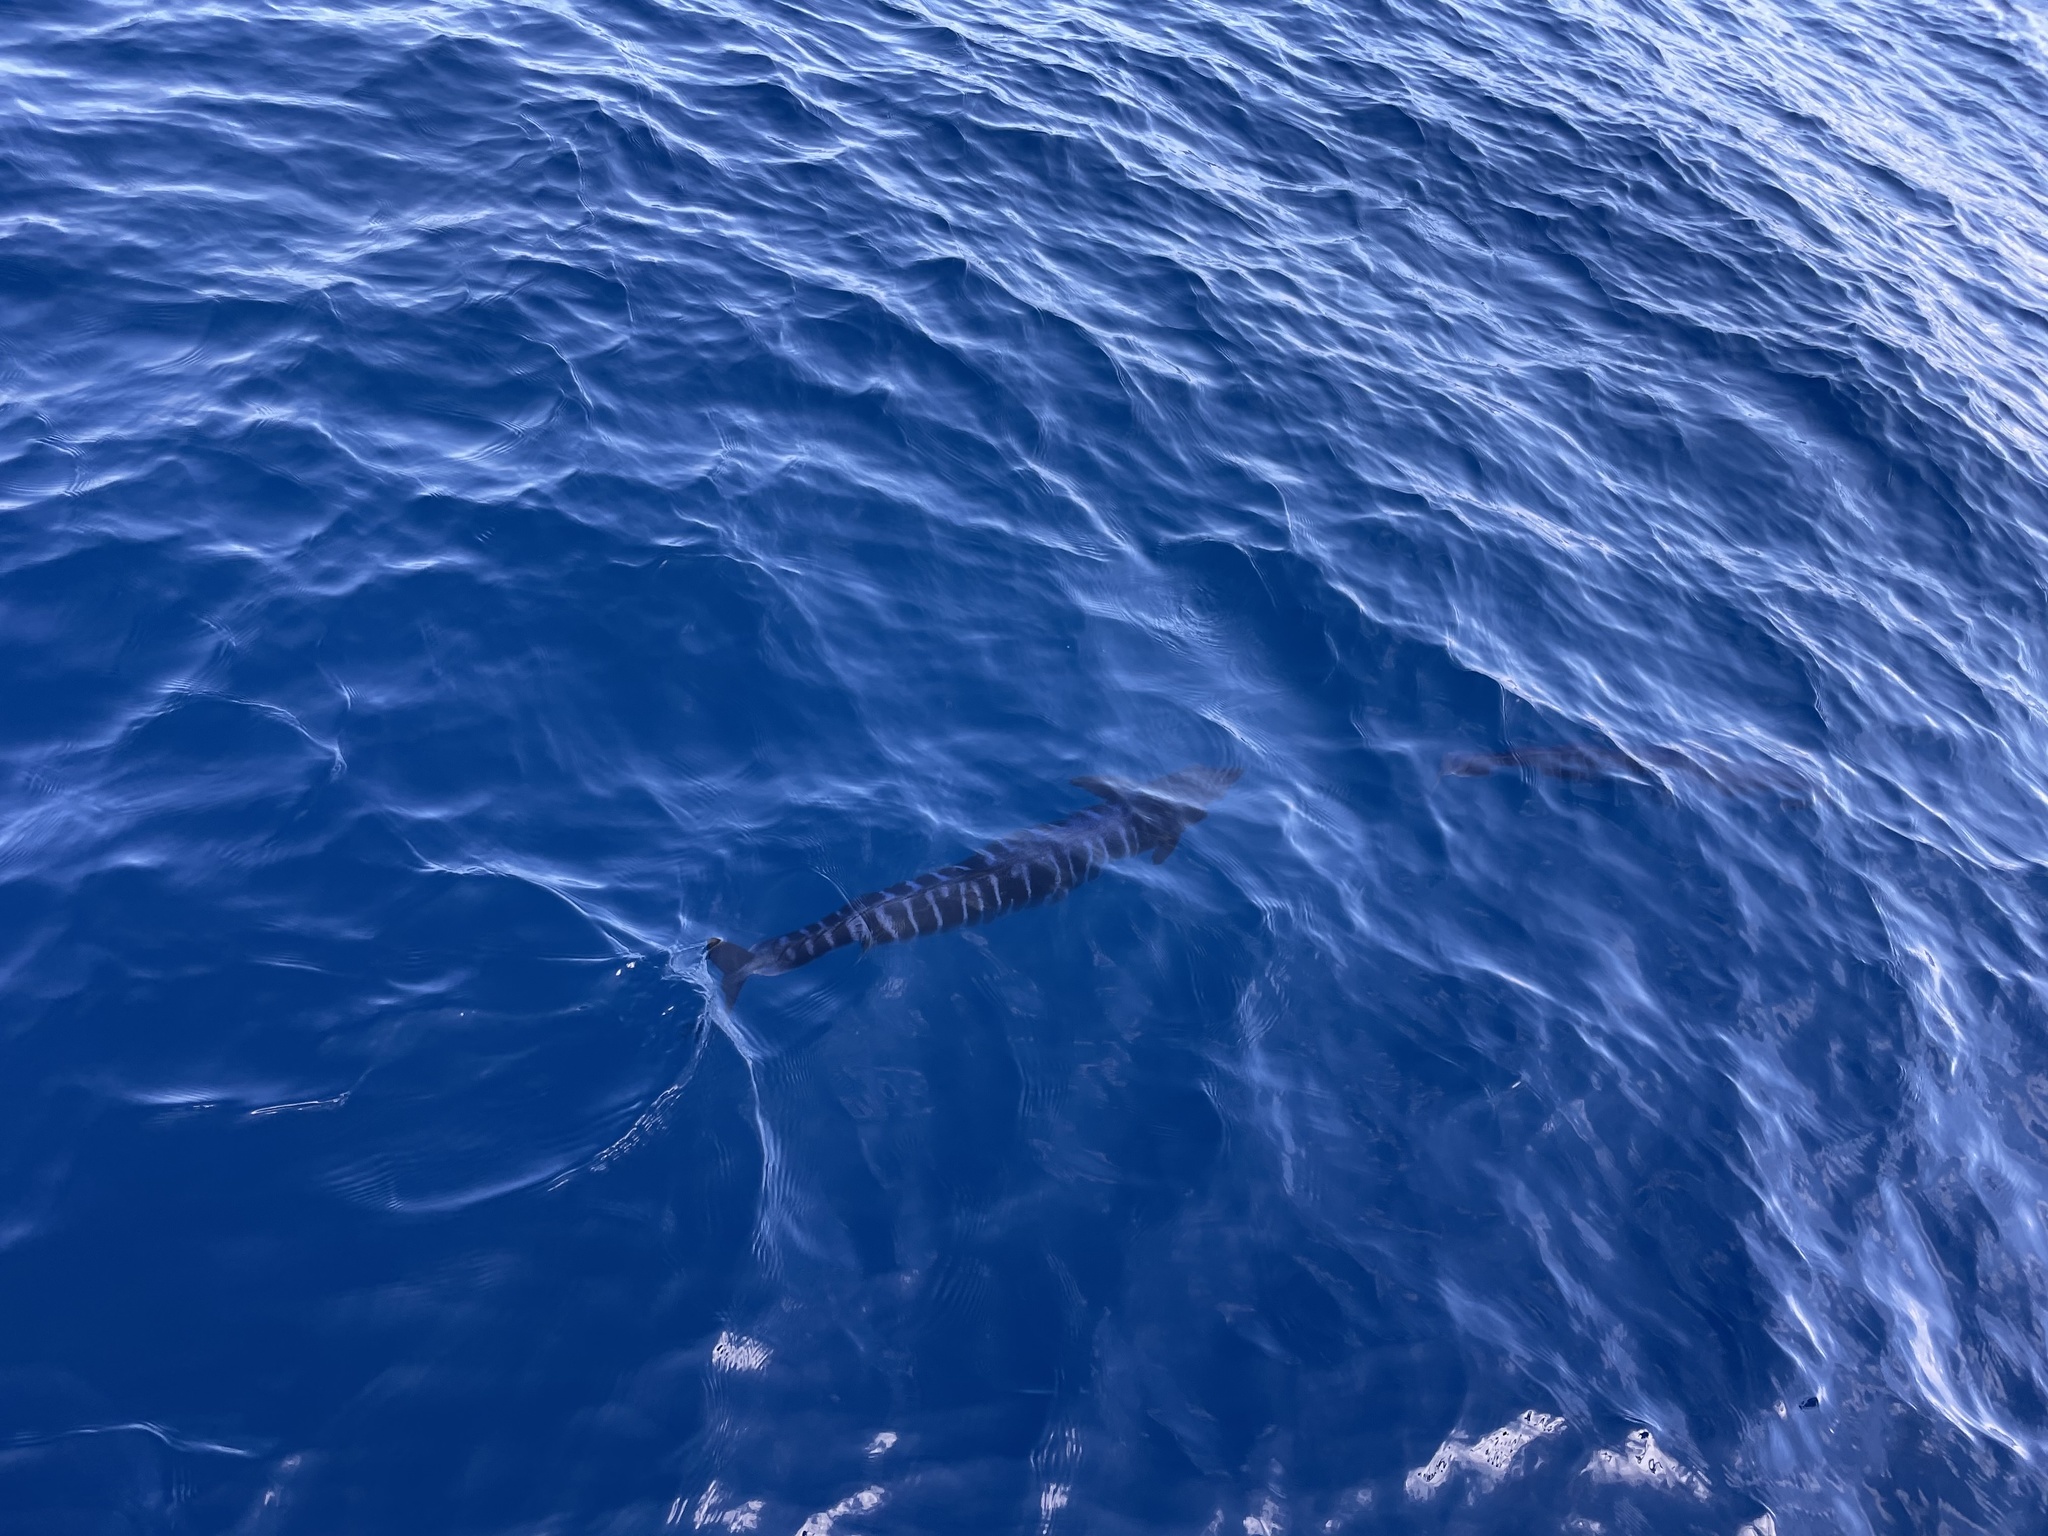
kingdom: Animalia
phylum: Chordata
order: Perciformes
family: Scombridae
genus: Acanthocybium
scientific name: Acanthocybium solandri
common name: Wahoo
